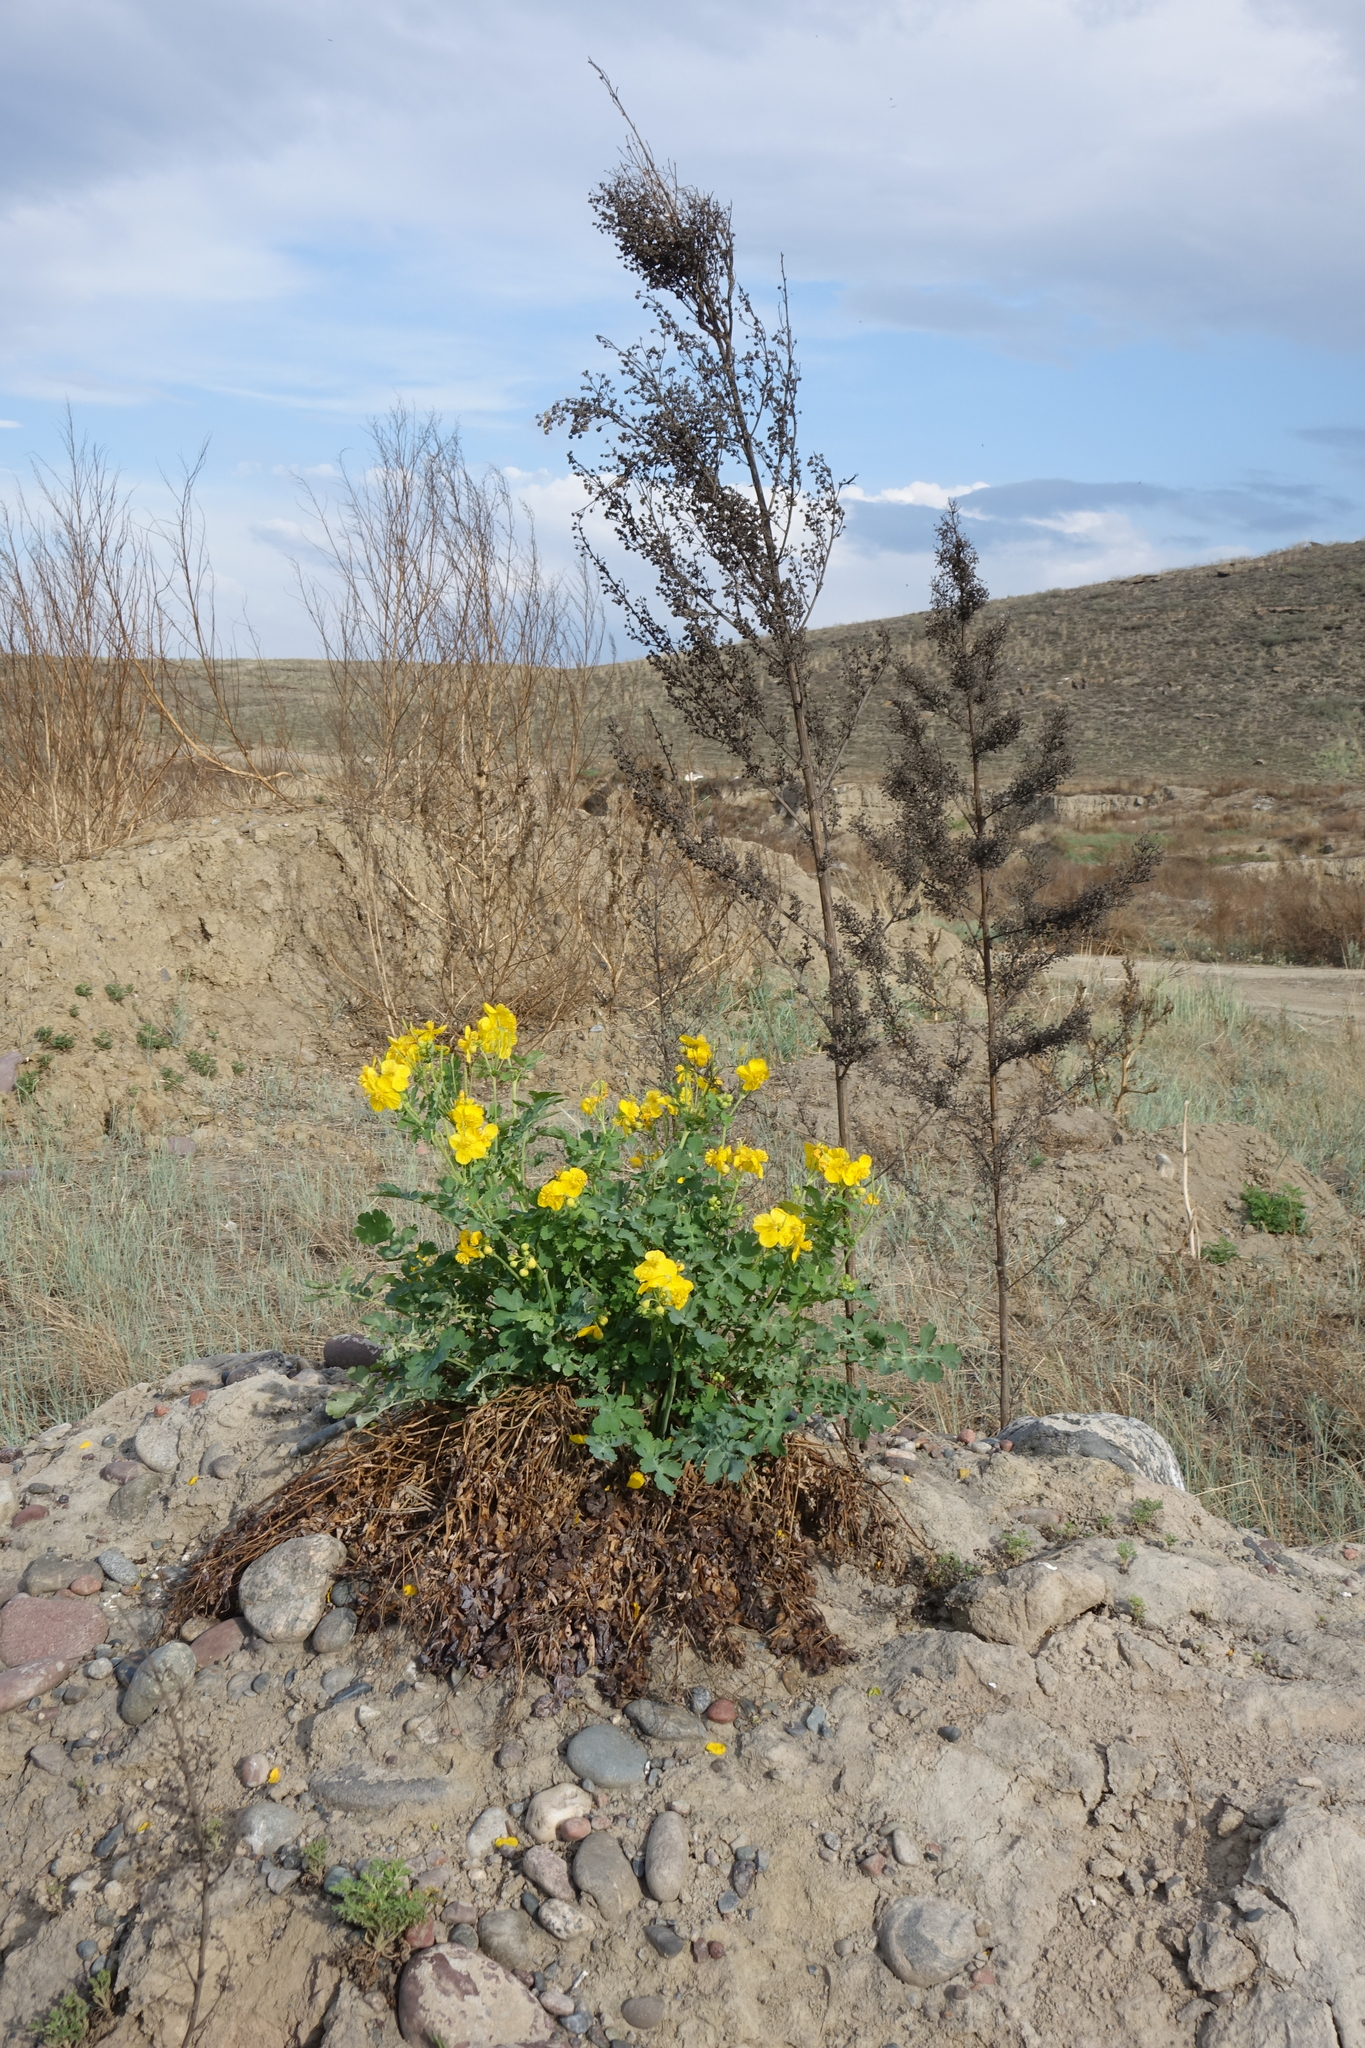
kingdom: Plantae
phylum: Tracheophyta
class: Magnoliopsida
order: Ranunculales
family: Papaveraceae
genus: Chelidonium
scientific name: Chelidonium majus
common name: Greater celandine
